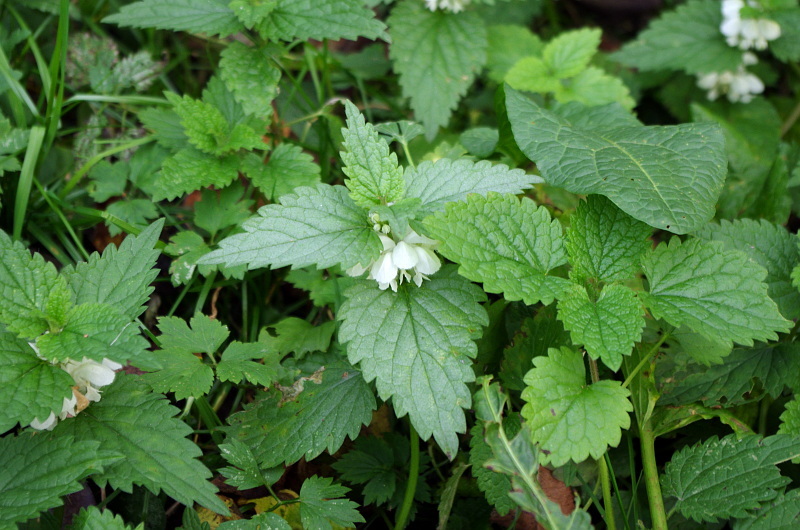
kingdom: Plantae
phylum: Tracheophyta
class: Magnoliopsida
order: Lamiales
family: Lamiaceae
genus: Lamium
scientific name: Lamium album
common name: White dead-nettle
